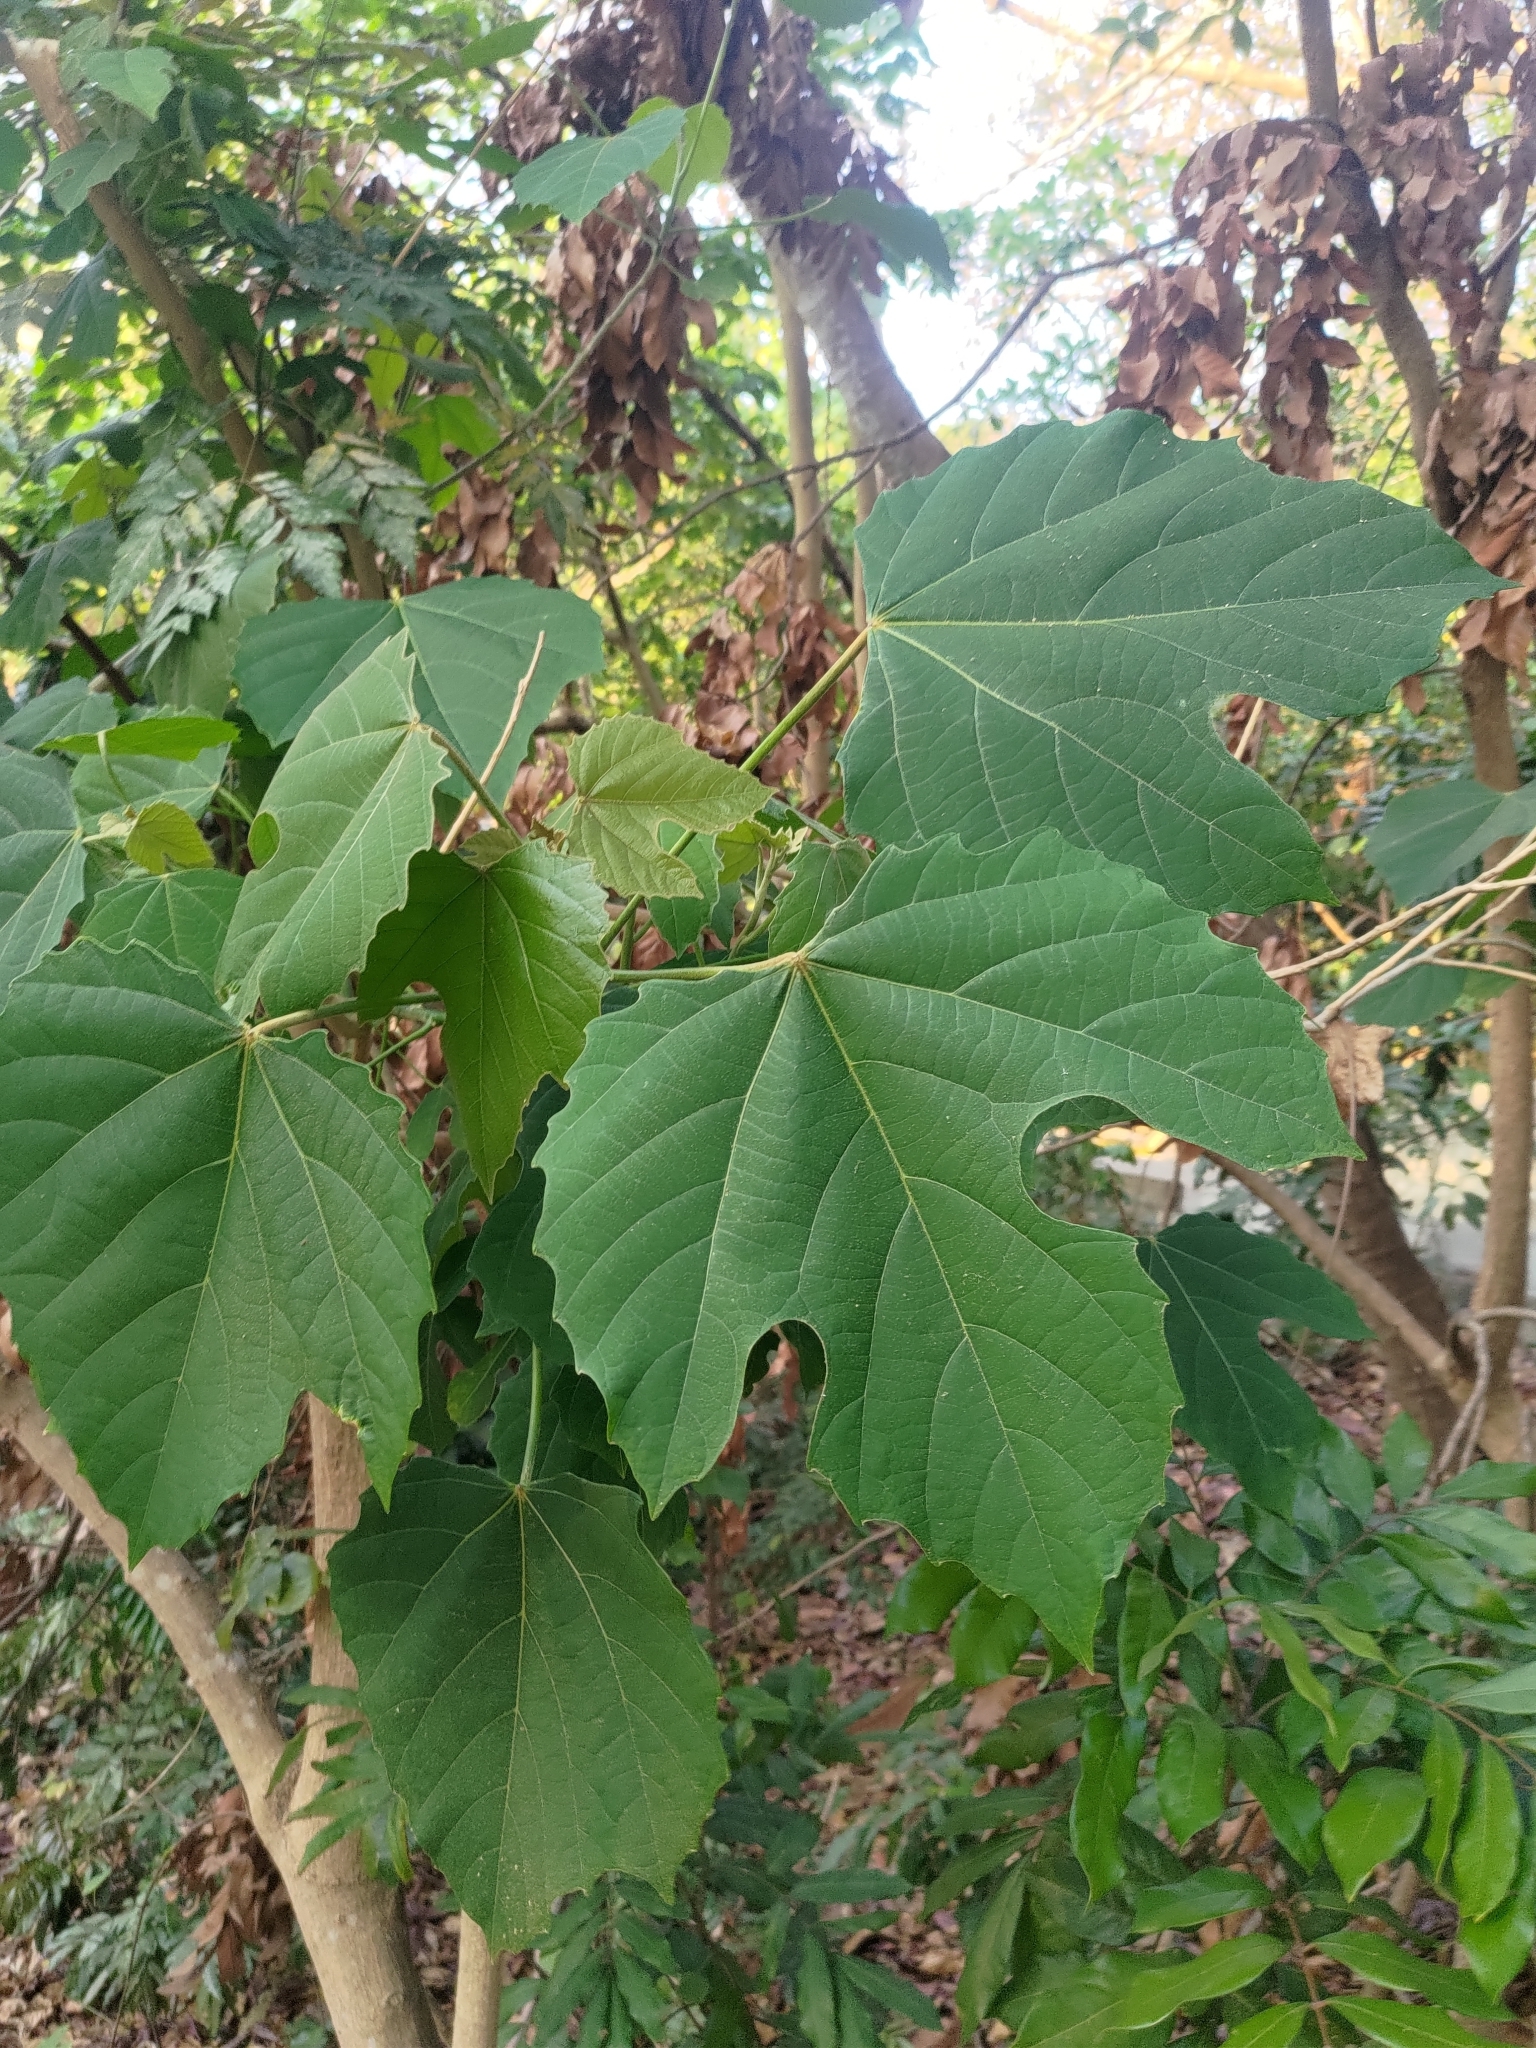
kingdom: Plantae
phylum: Tracheophyta
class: Magnoliopsida
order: Malpighiales
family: Euphorbiaceae
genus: Melanolepis
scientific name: Melanolepis multiglandulosa
